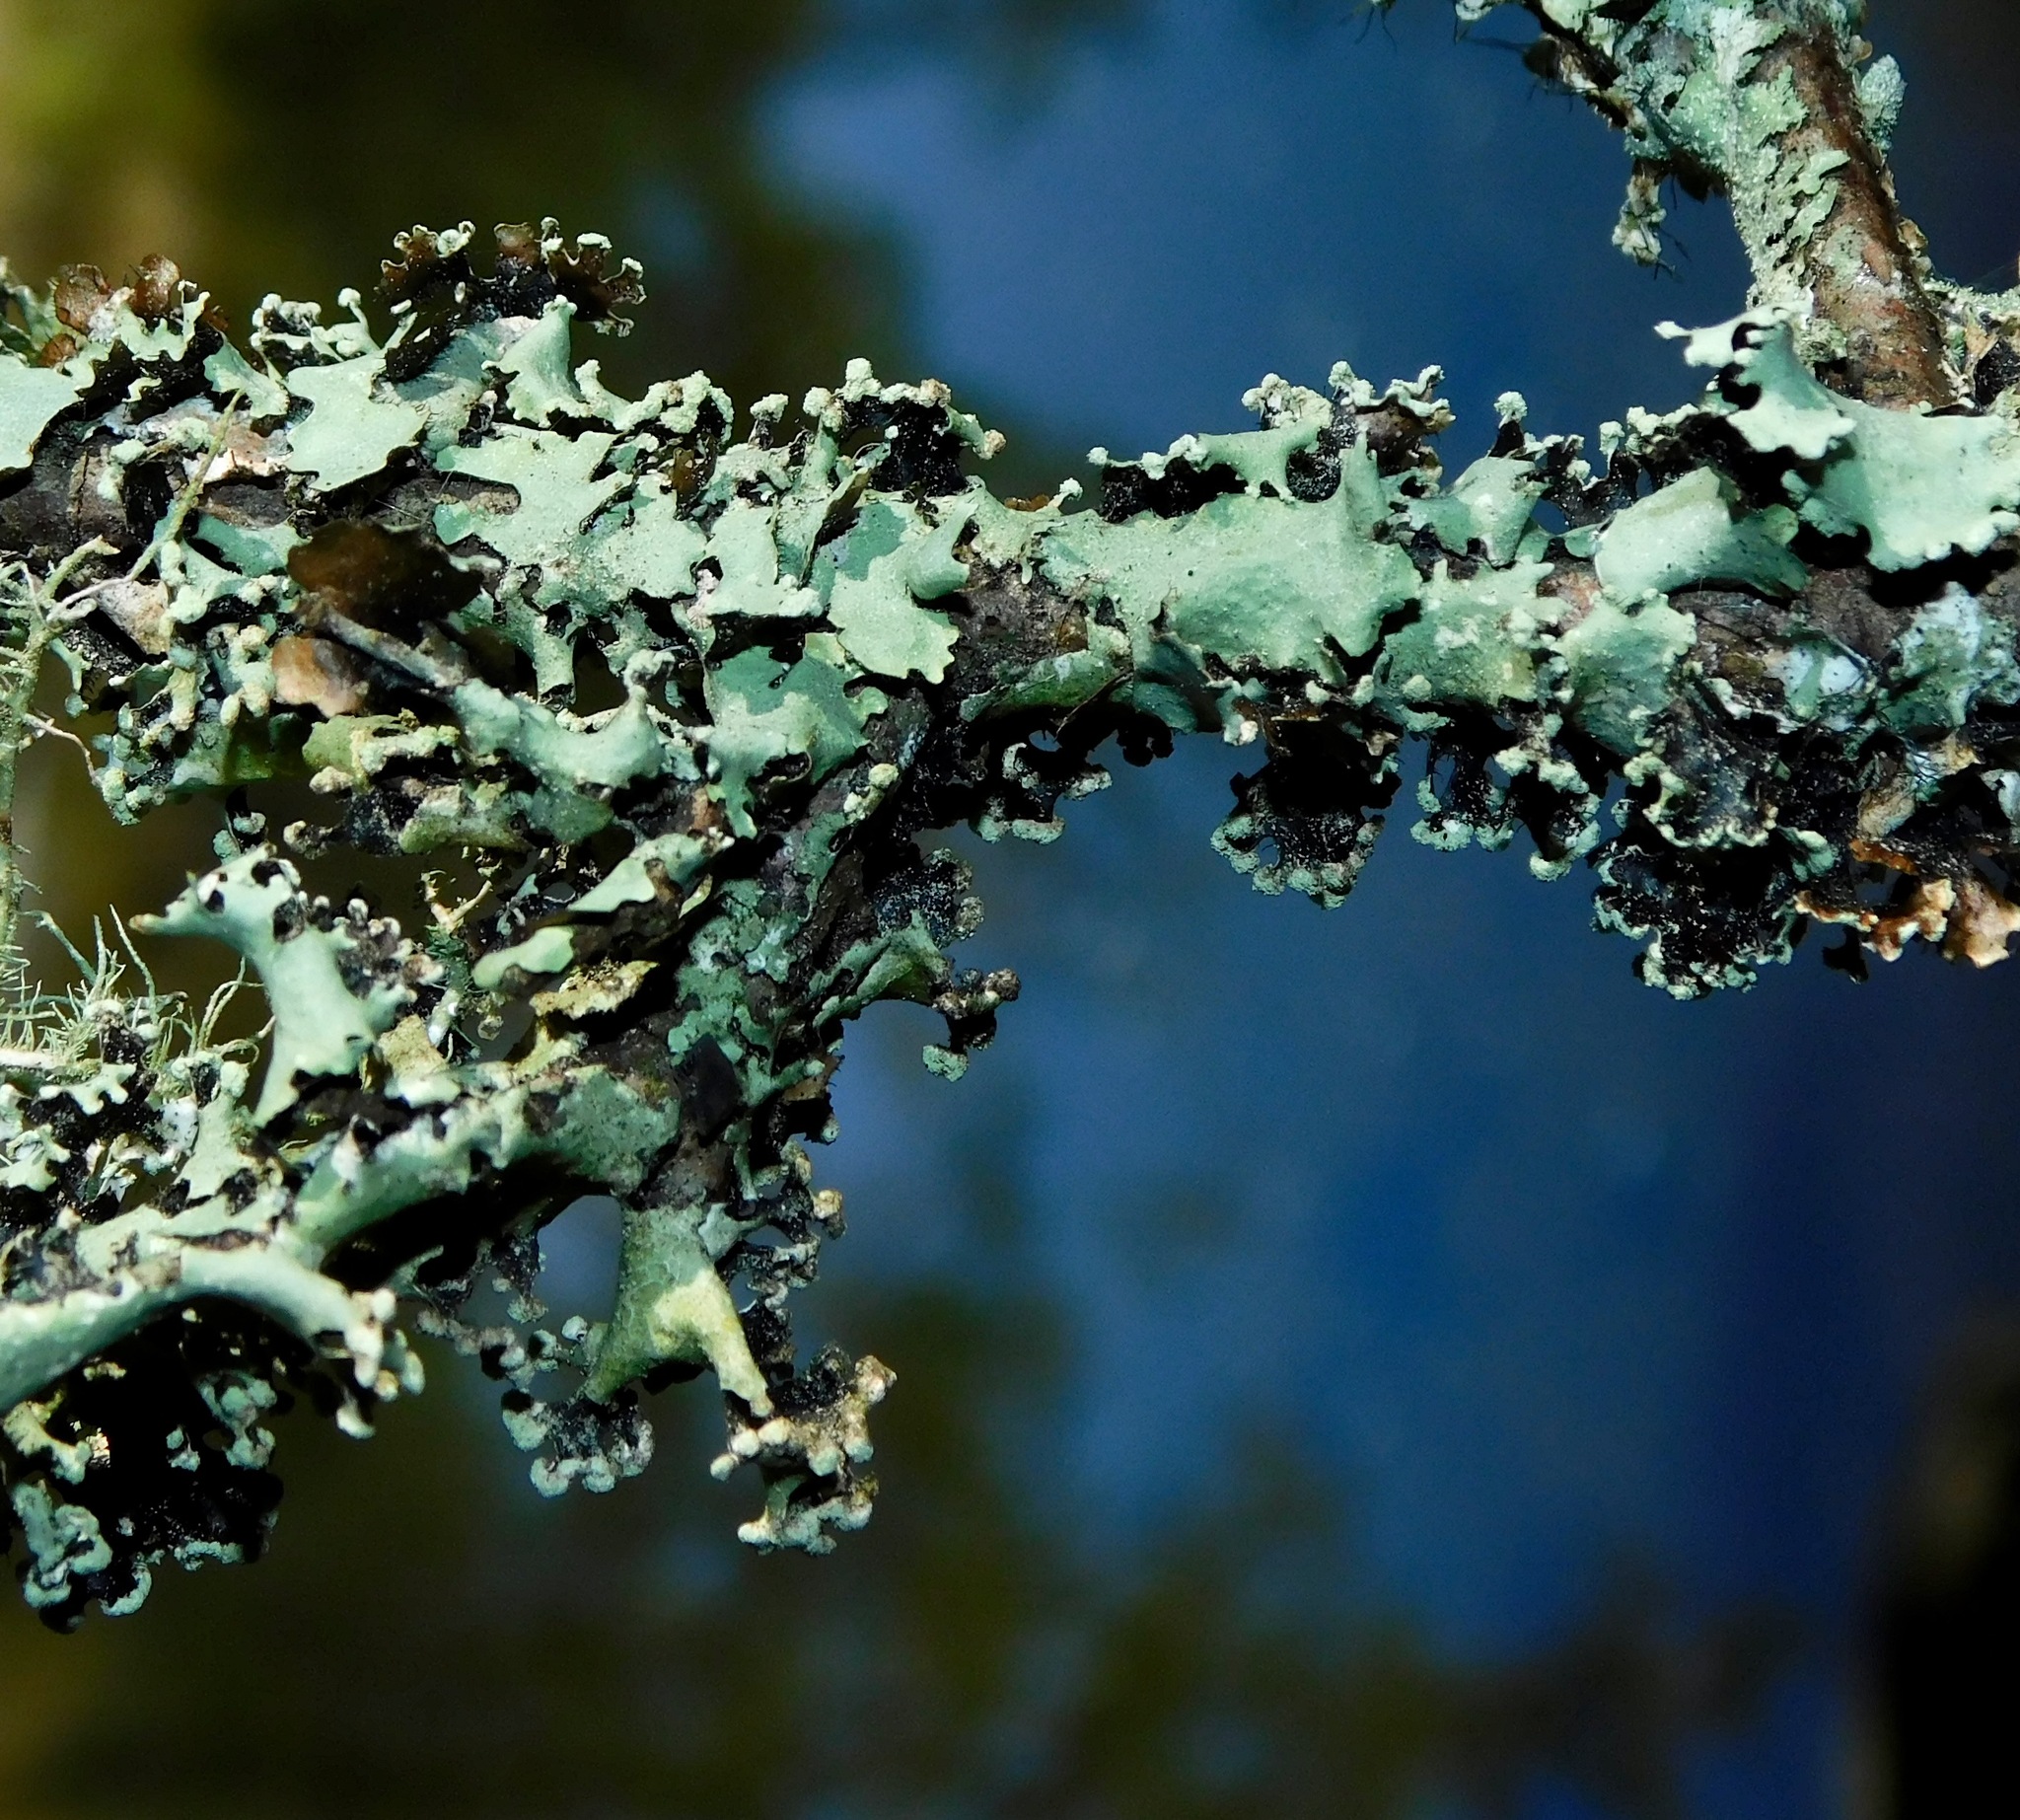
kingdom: Fungi
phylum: Ascomycota
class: Lecanoromycetes
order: Lecanorales
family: Parmeliaceae
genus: Parmotrema
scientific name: Parmotrema simulans
